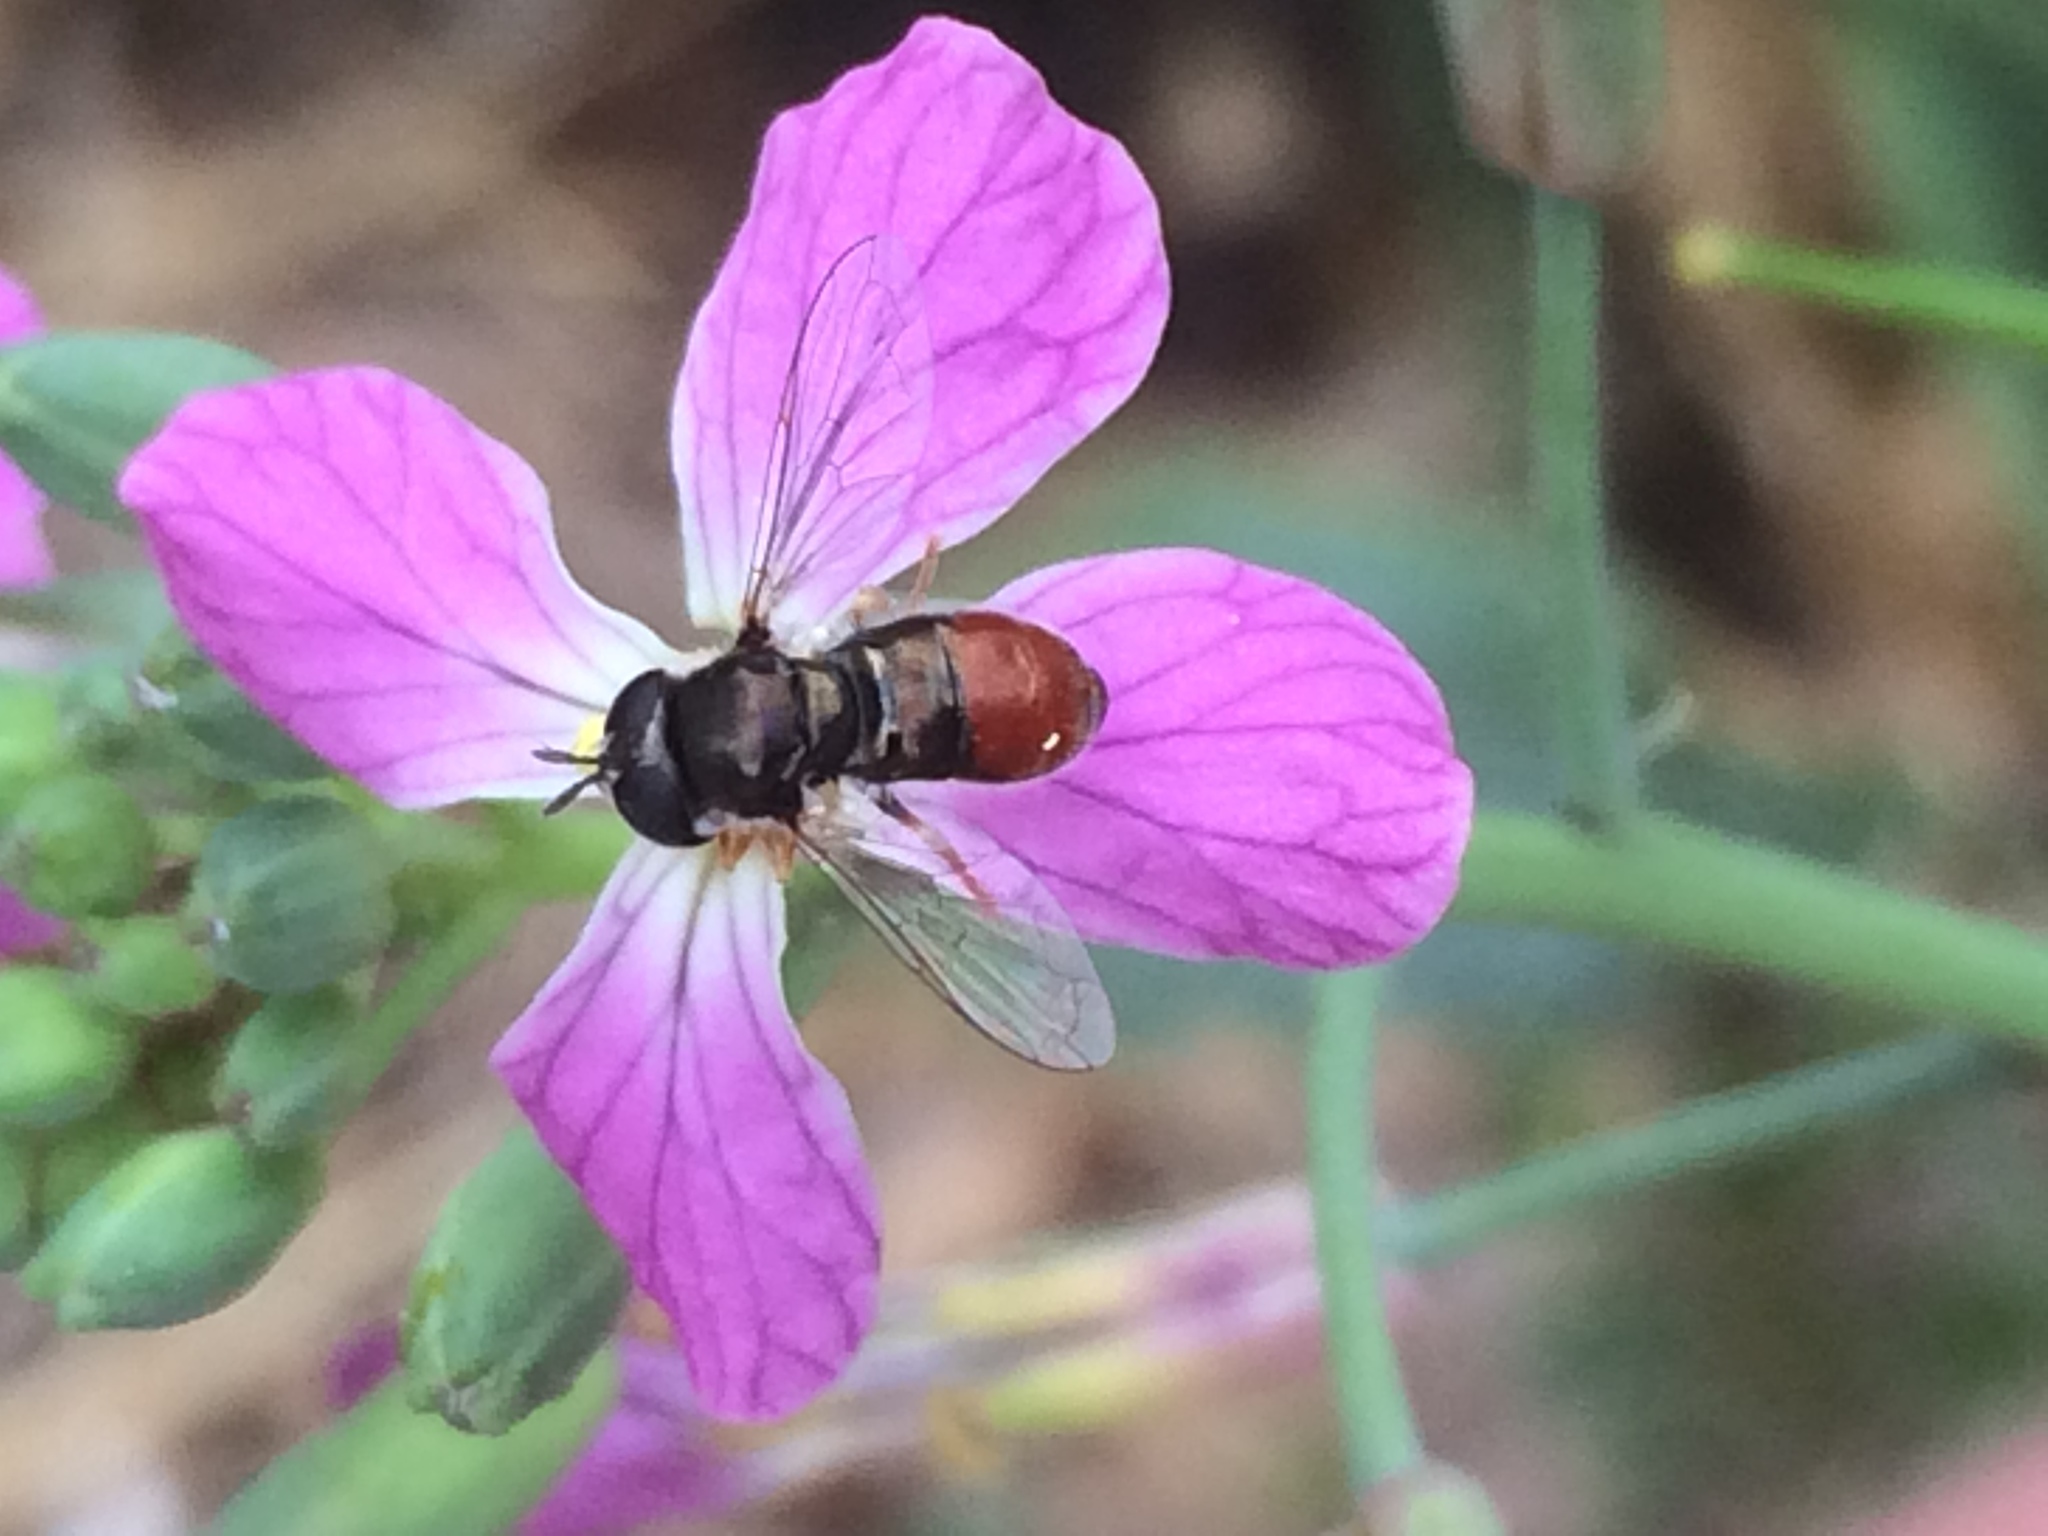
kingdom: Animalia
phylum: Arthropoda
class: Insecta
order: Diptera
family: Syrphidae
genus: Paragus
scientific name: Paragus haemorrhous
